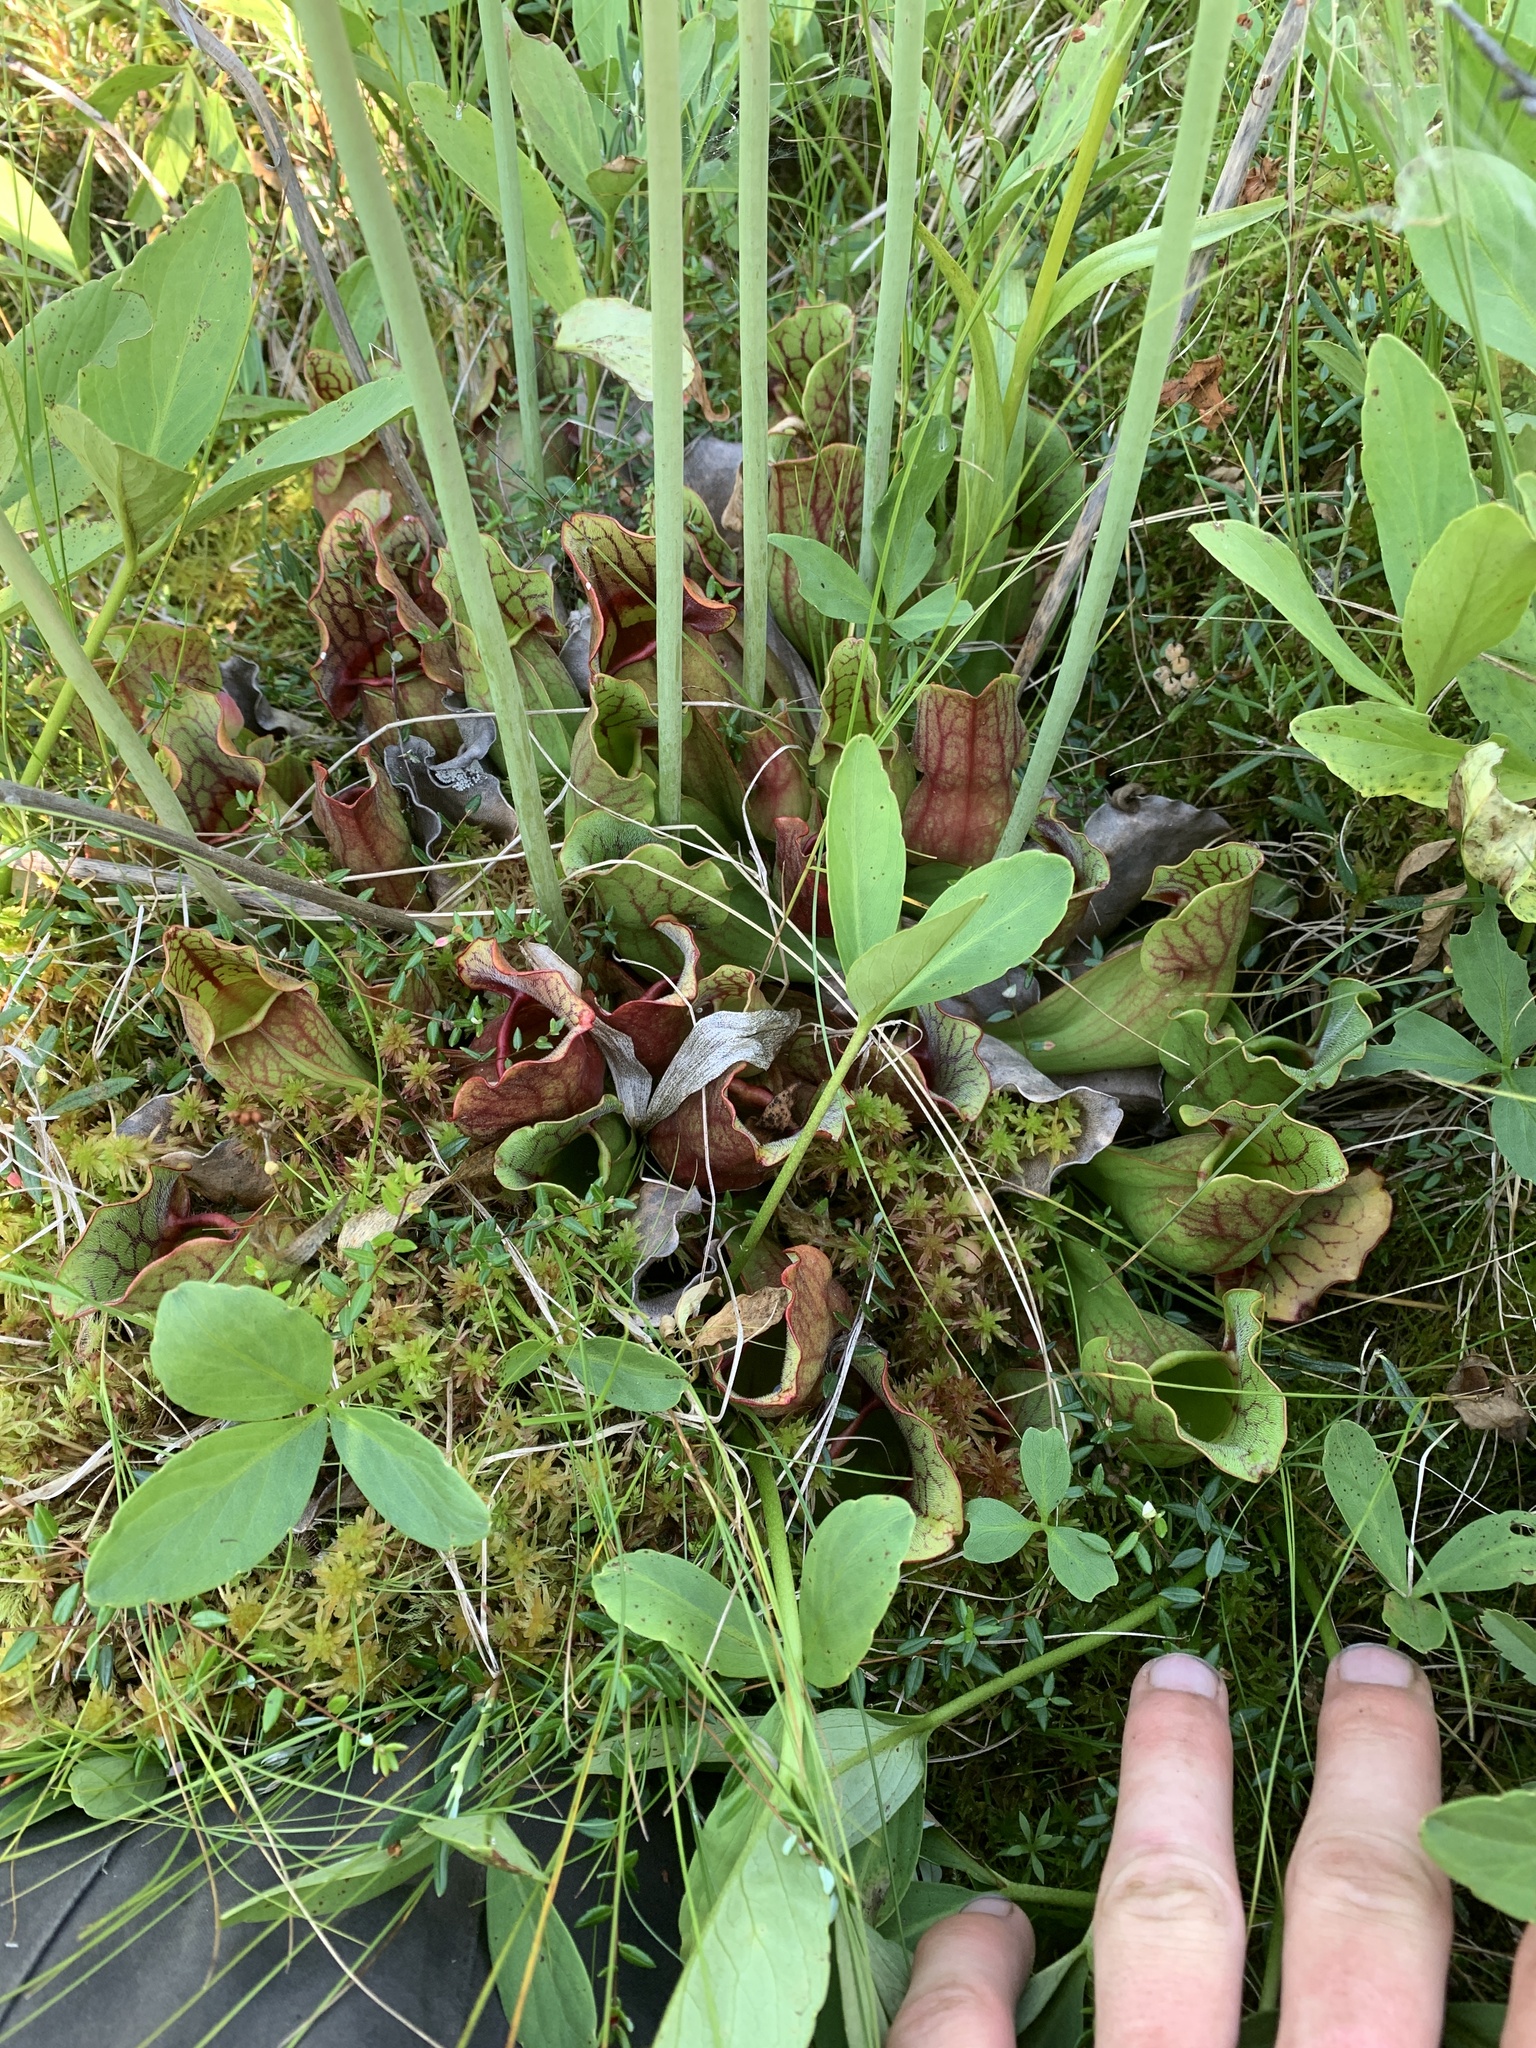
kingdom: Plantae
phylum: Tracheophyta
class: Magnoliopsida
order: Ericales
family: Sarraceniaceae
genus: Sarracenia
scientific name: Sarracenia purpurea
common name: Pitcherplant
